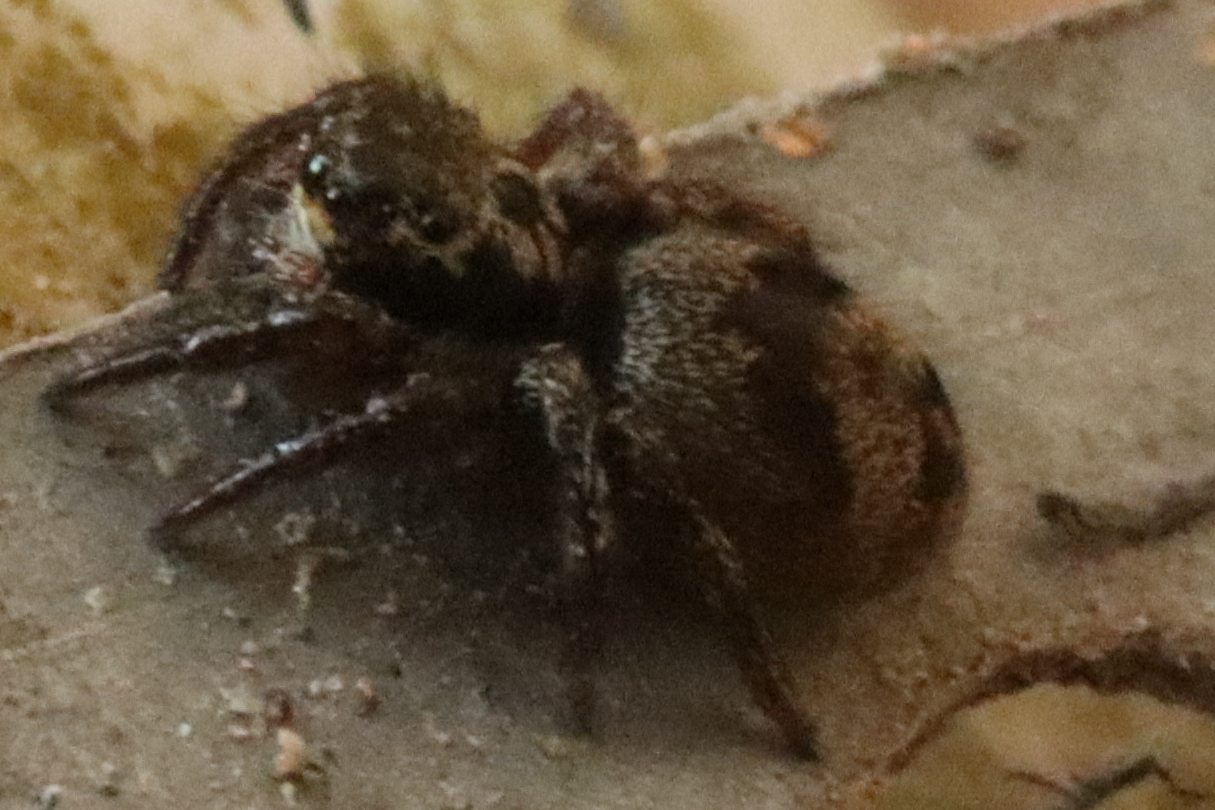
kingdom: Animalia
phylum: Arthropoda
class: Arachnida
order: Araneae
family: Salticidae
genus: Corythalia
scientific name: Corythalia conferta
